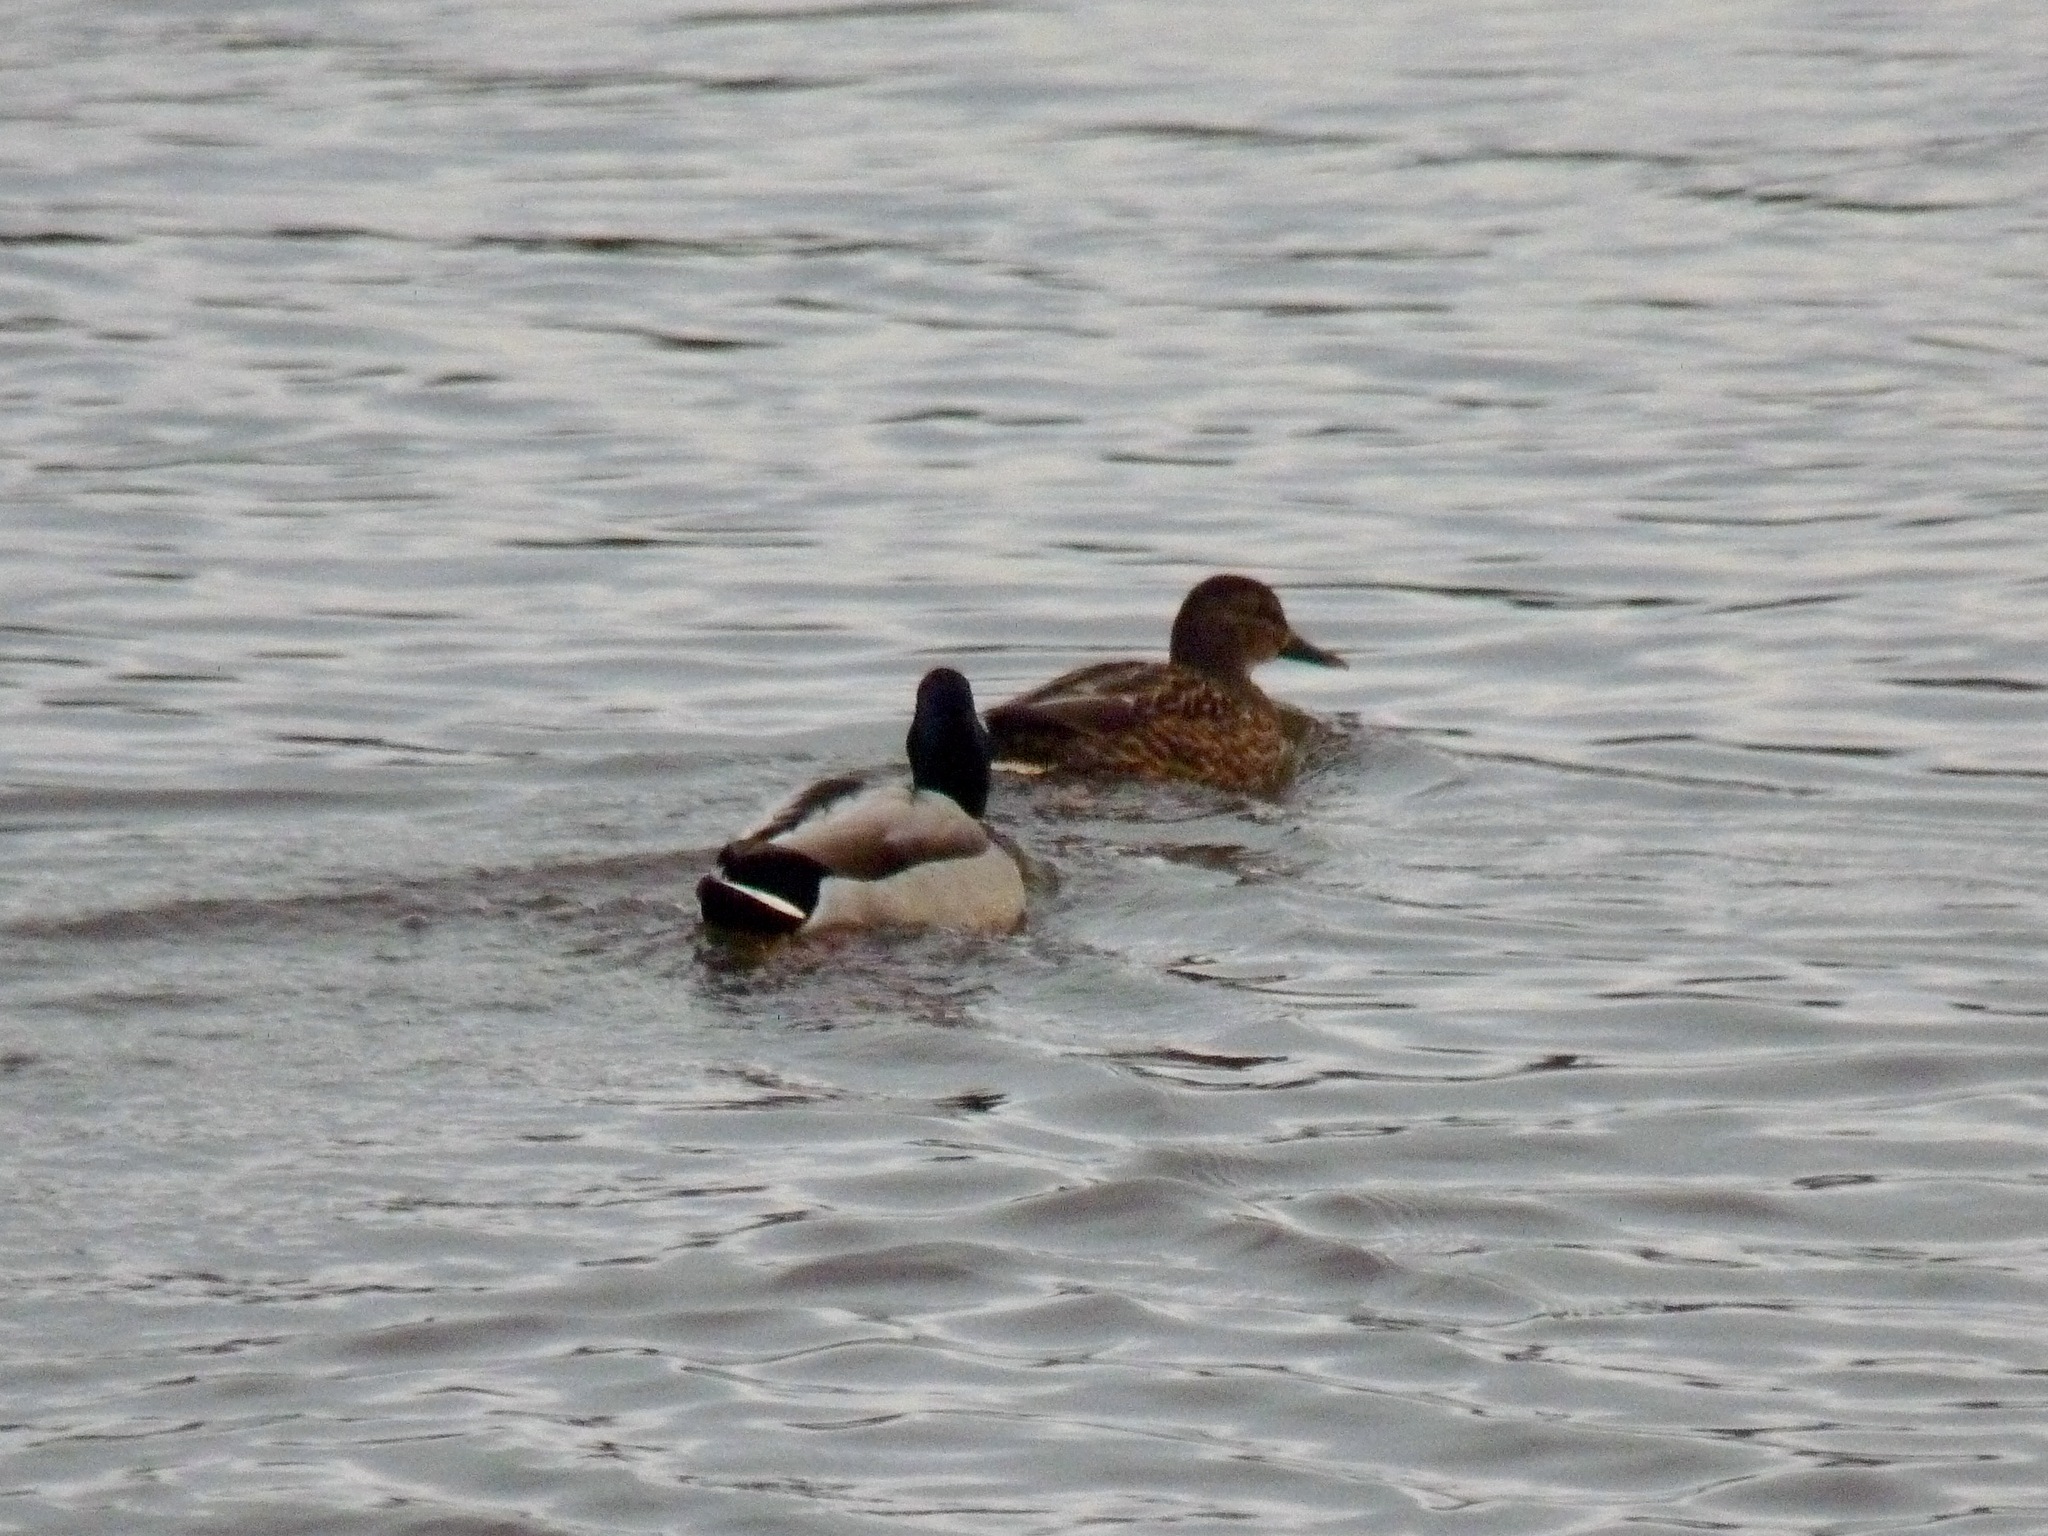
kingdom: Animalia
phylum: Chordata
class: Aves
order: Anseriformes
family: Anatidae
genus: Anas
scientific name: Anas platyrhynchos
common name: Mallard
